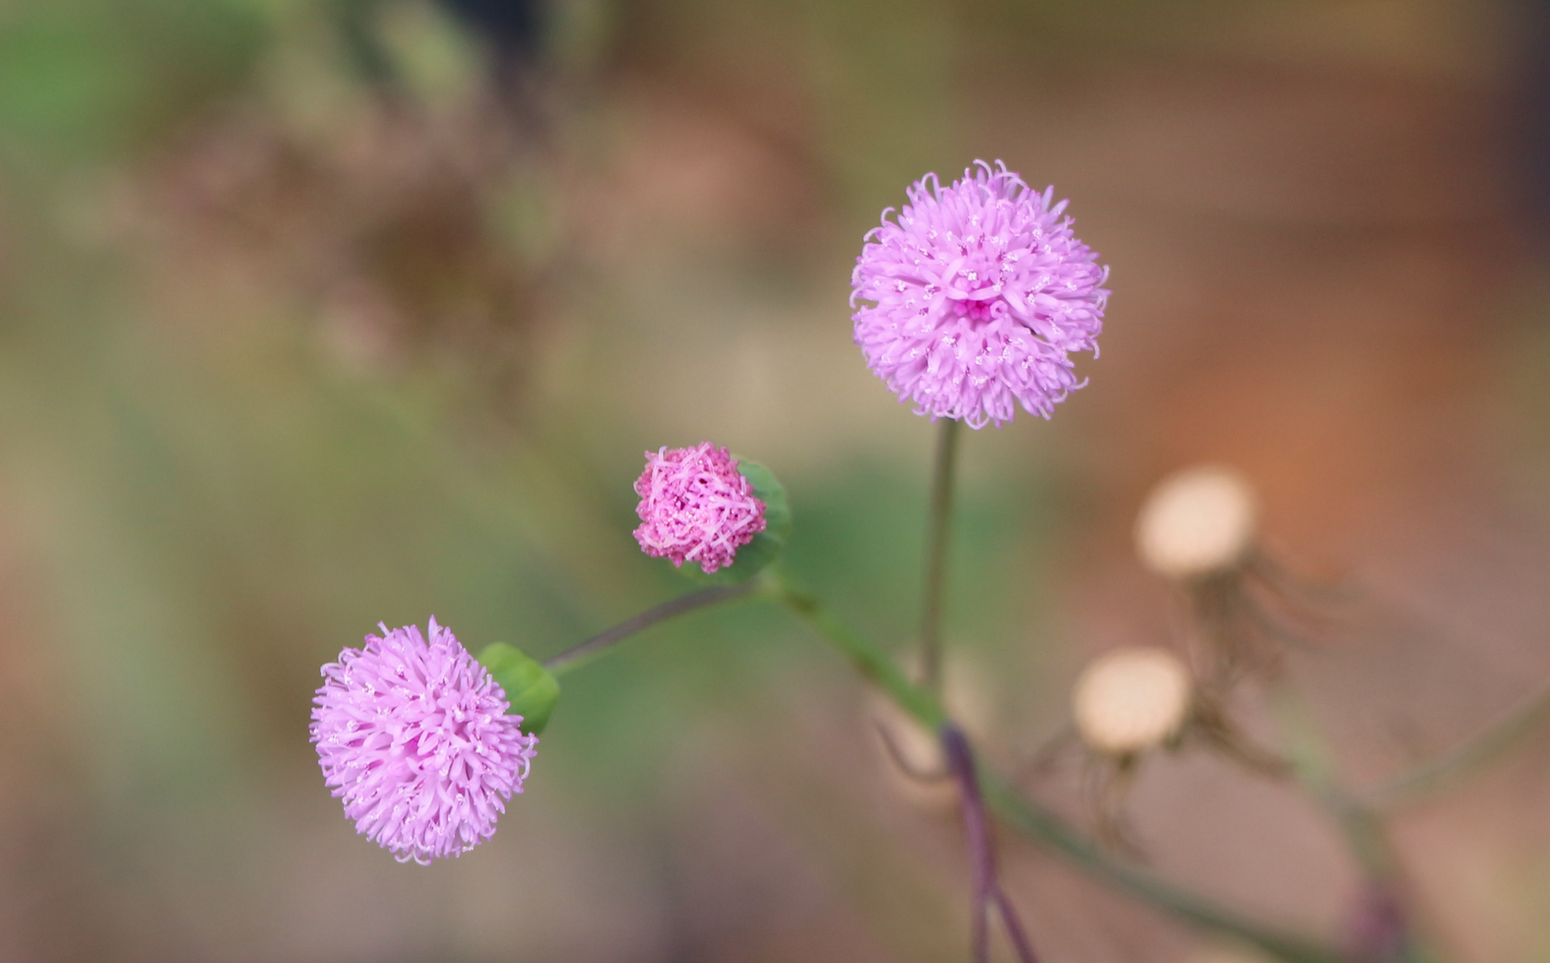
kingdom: Plantae
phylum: Tracheophyta
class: Magnoliopsida
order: Asterales
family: Asteraceae
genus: Emilia
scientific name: Emilia sonchifolia
